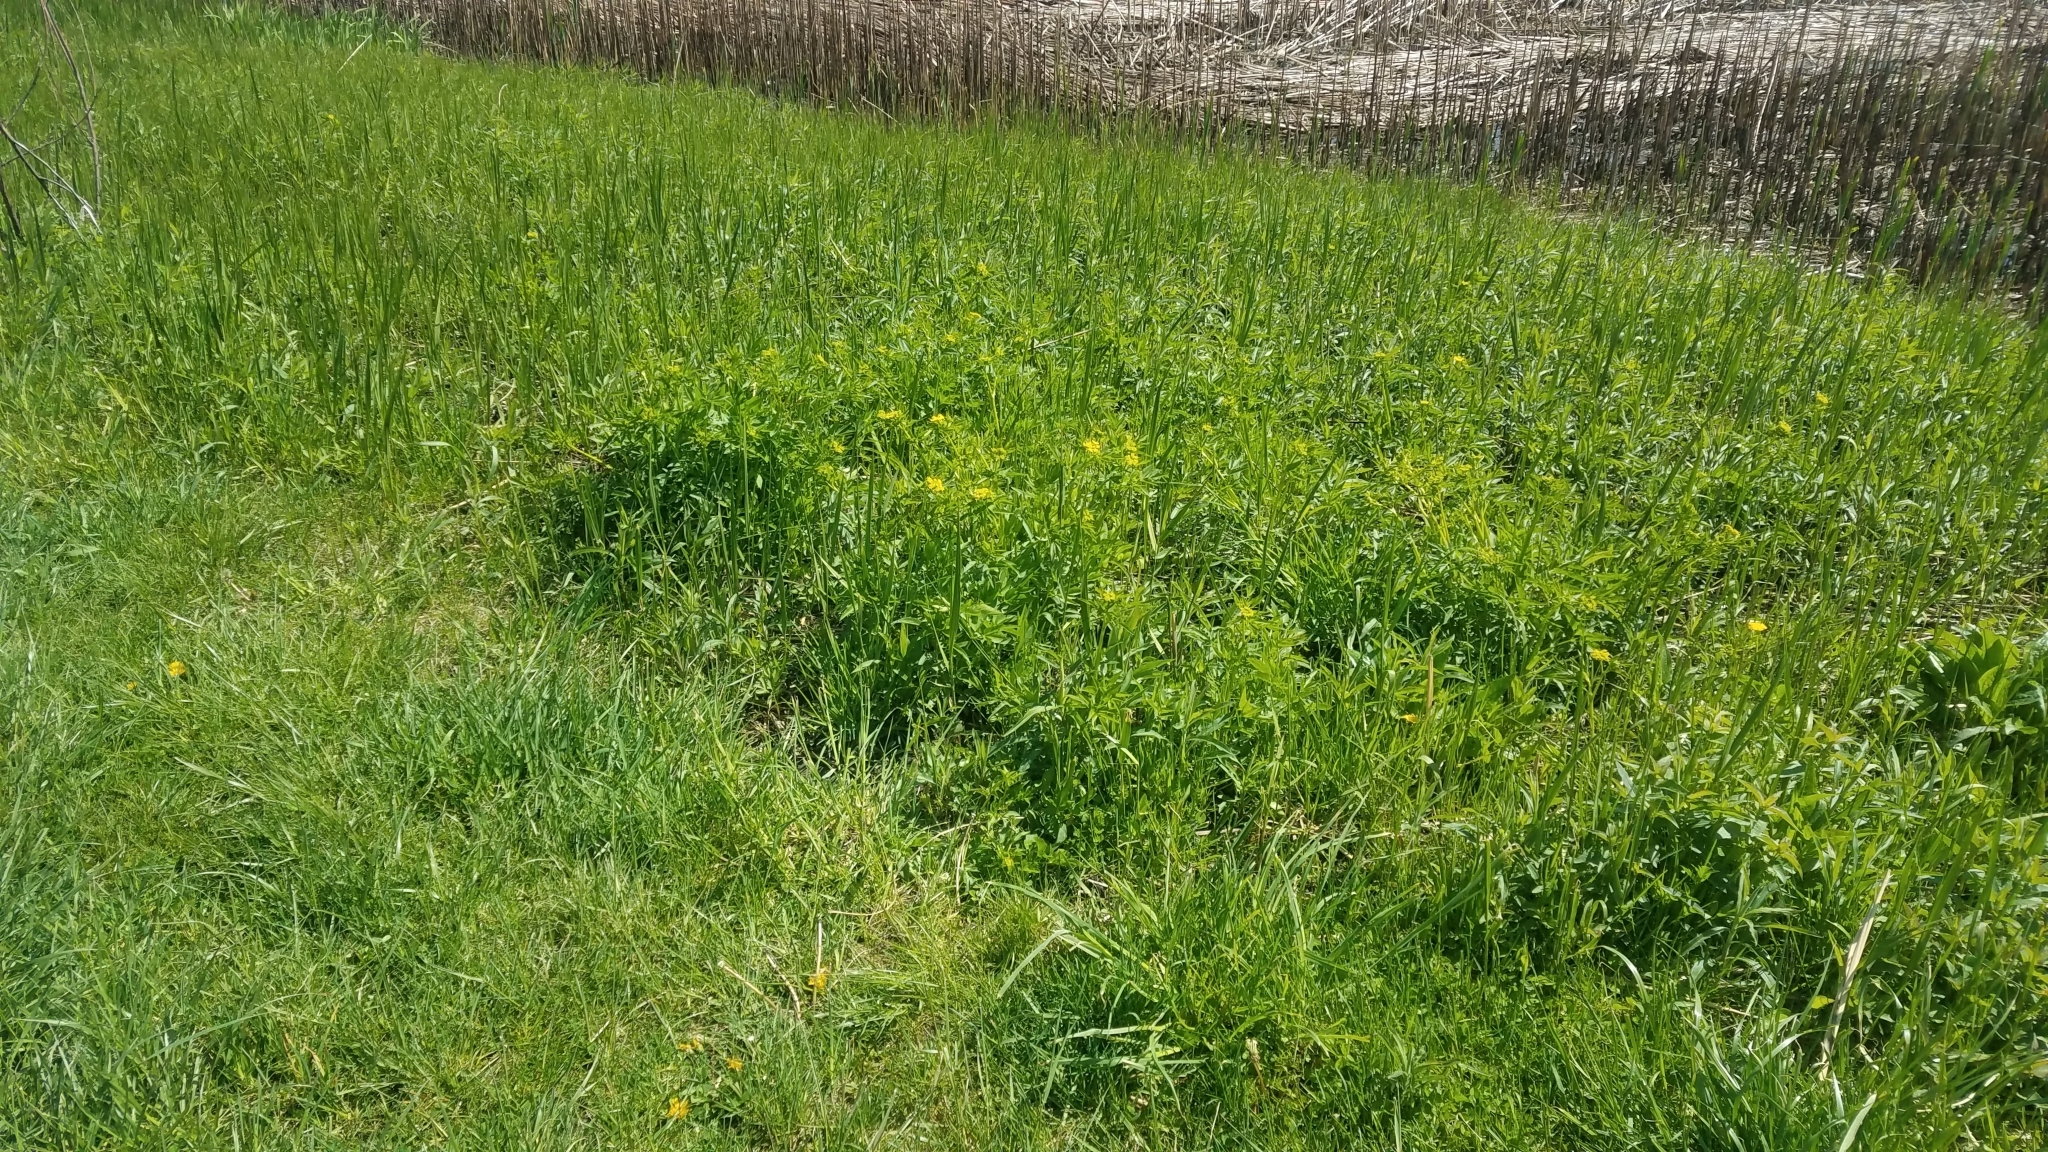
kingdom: Plantae
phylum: Tracheophyta
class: Magnoliopsida
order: Apiales
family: Apiaceae
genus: Zizia
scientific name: Zizia aurea
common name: Golden alexanders
